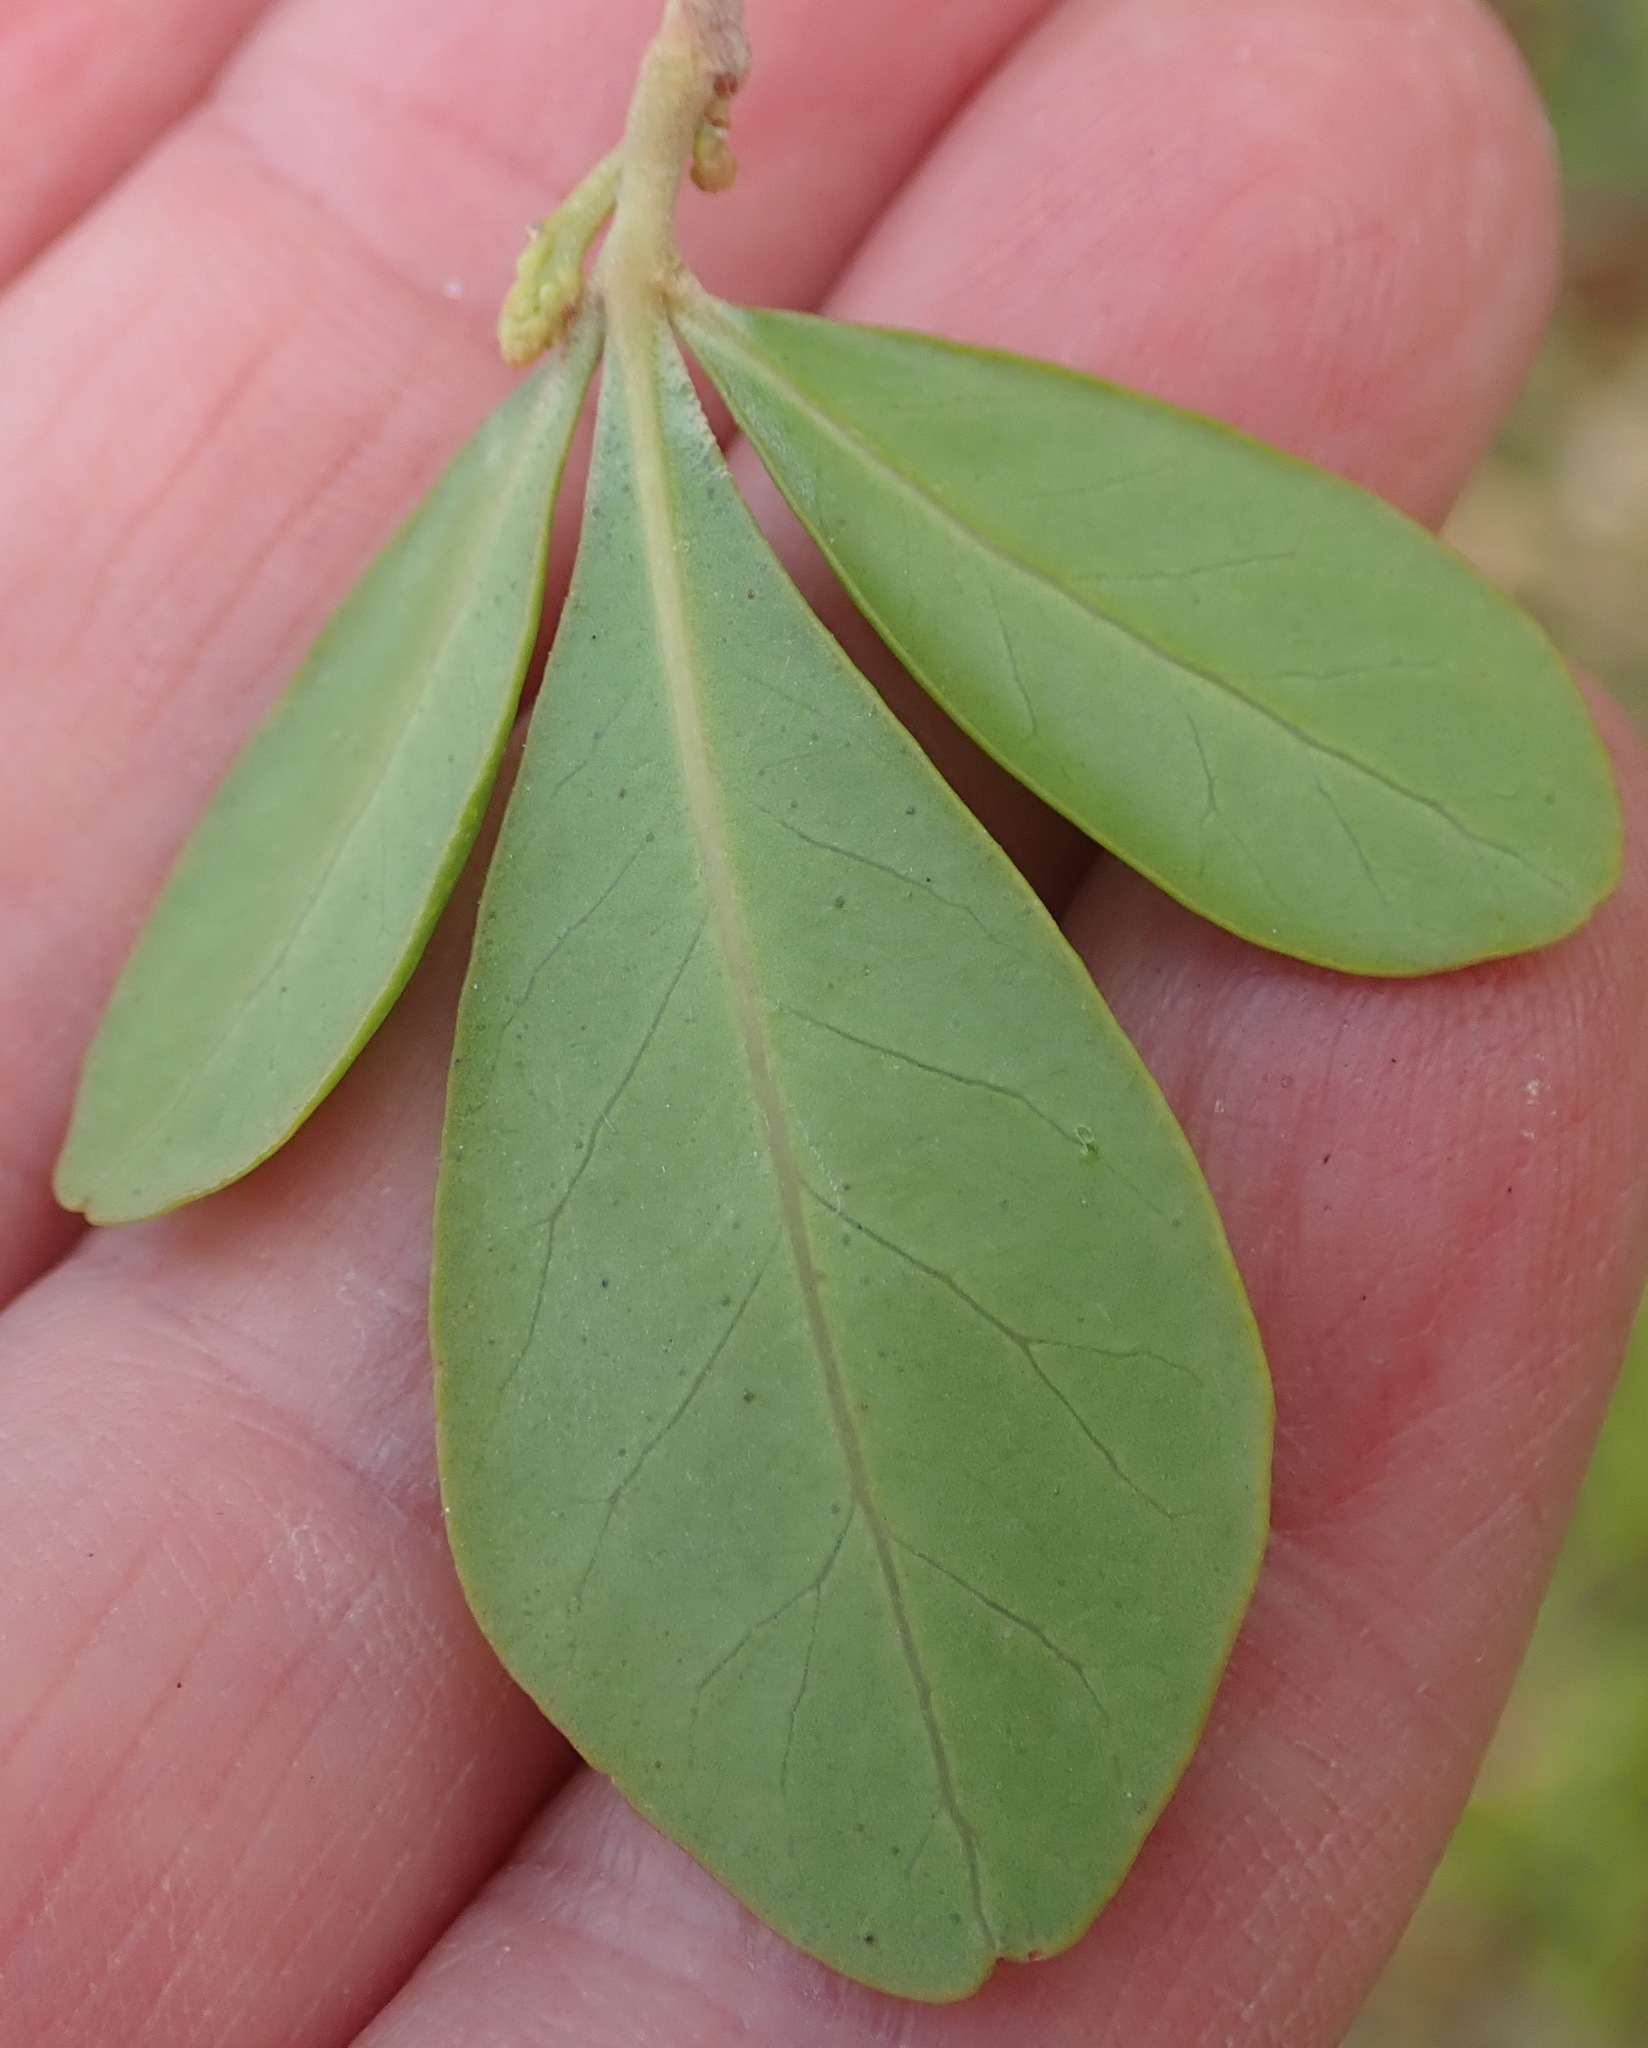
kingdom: Plantae
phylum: Tracheophyta
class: Magnoliopsida
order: Sapindales
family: Anacardiaceae
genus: Searsia
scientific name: Searsia lucida
